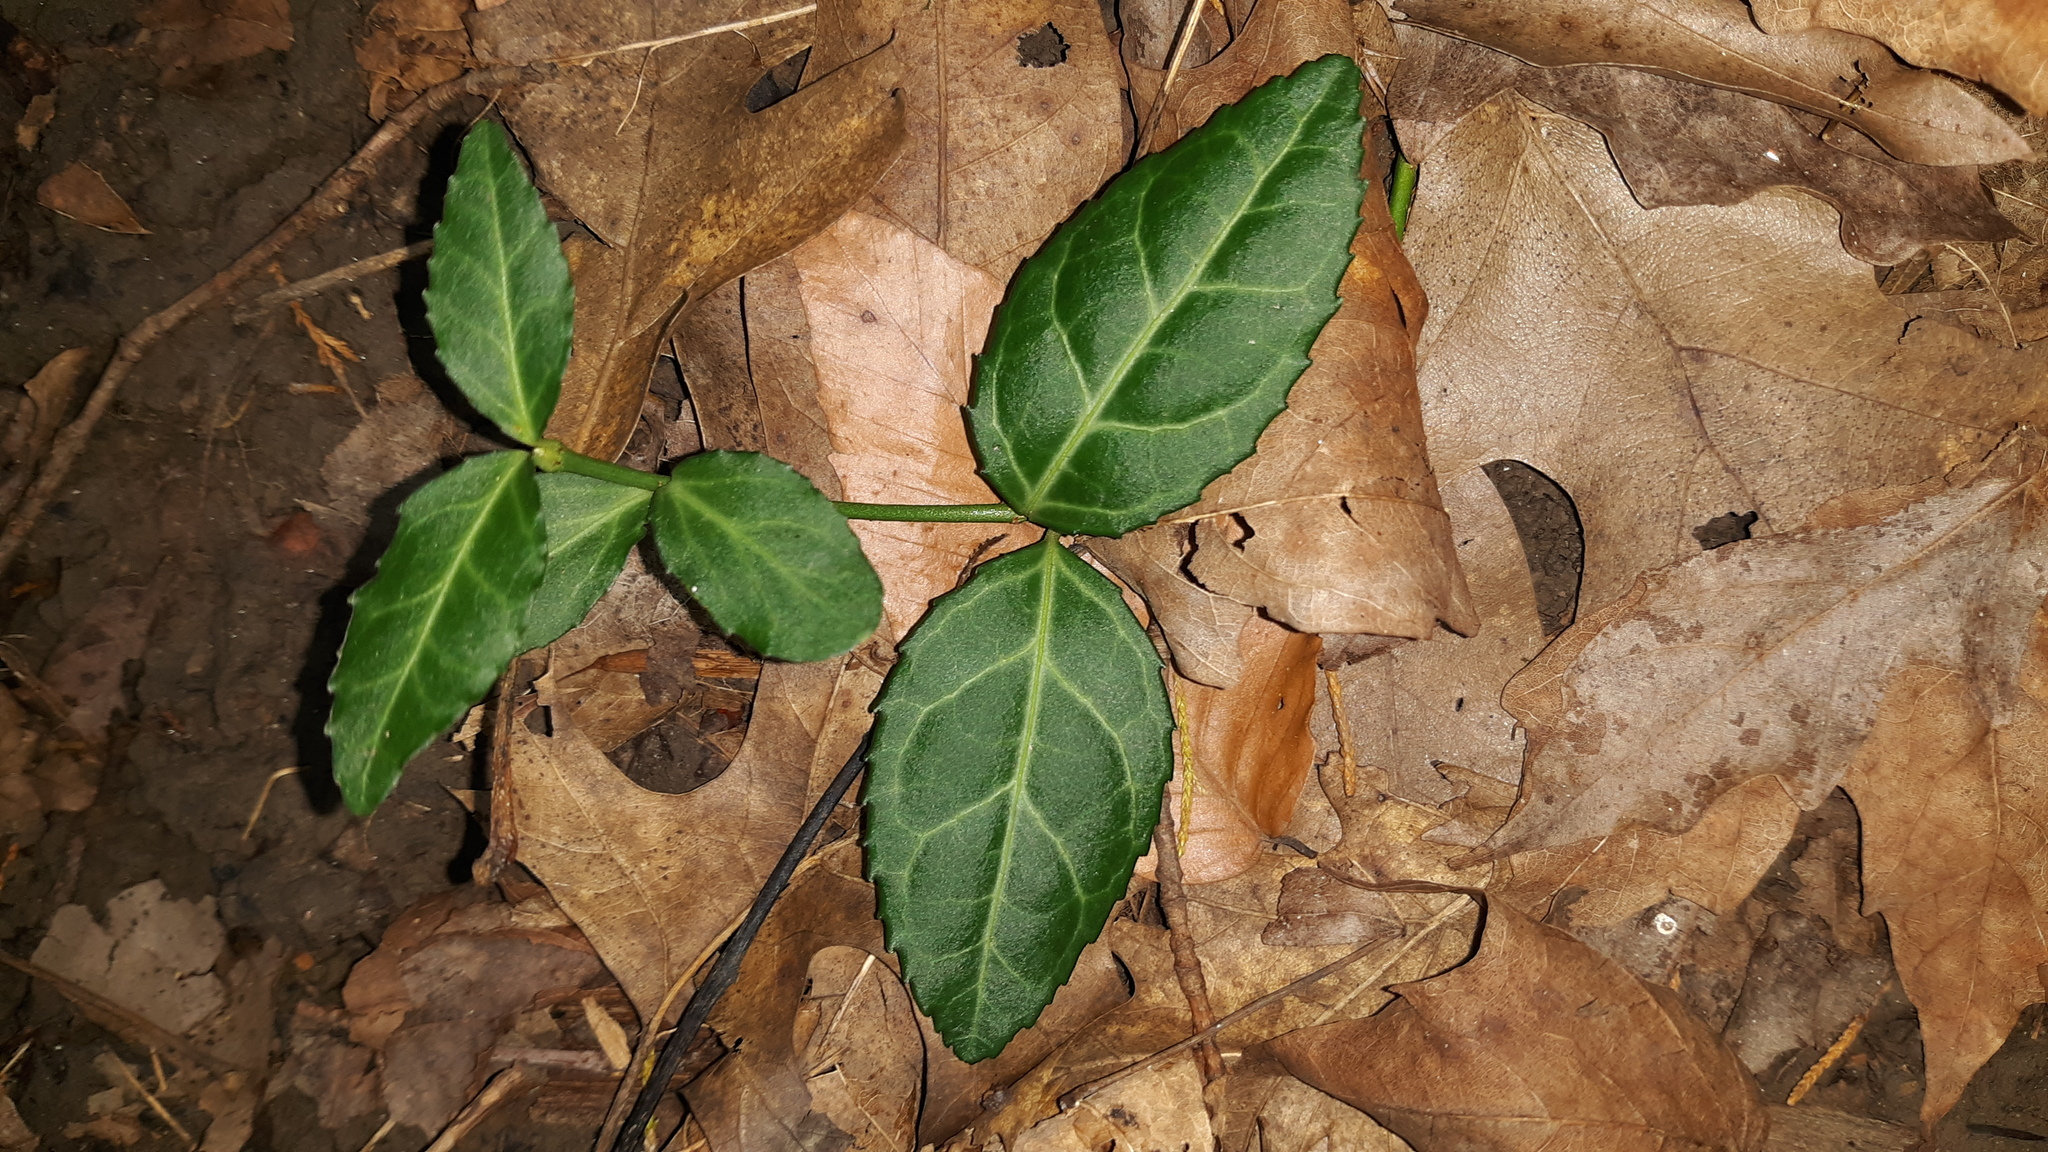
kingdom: Plantae
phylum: Tracheophyta
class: Magnoliopsida
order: Celastrales
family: Celastraceae
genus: Euonymus
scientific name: Euonymus fortunei
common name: Climbing euonymus
